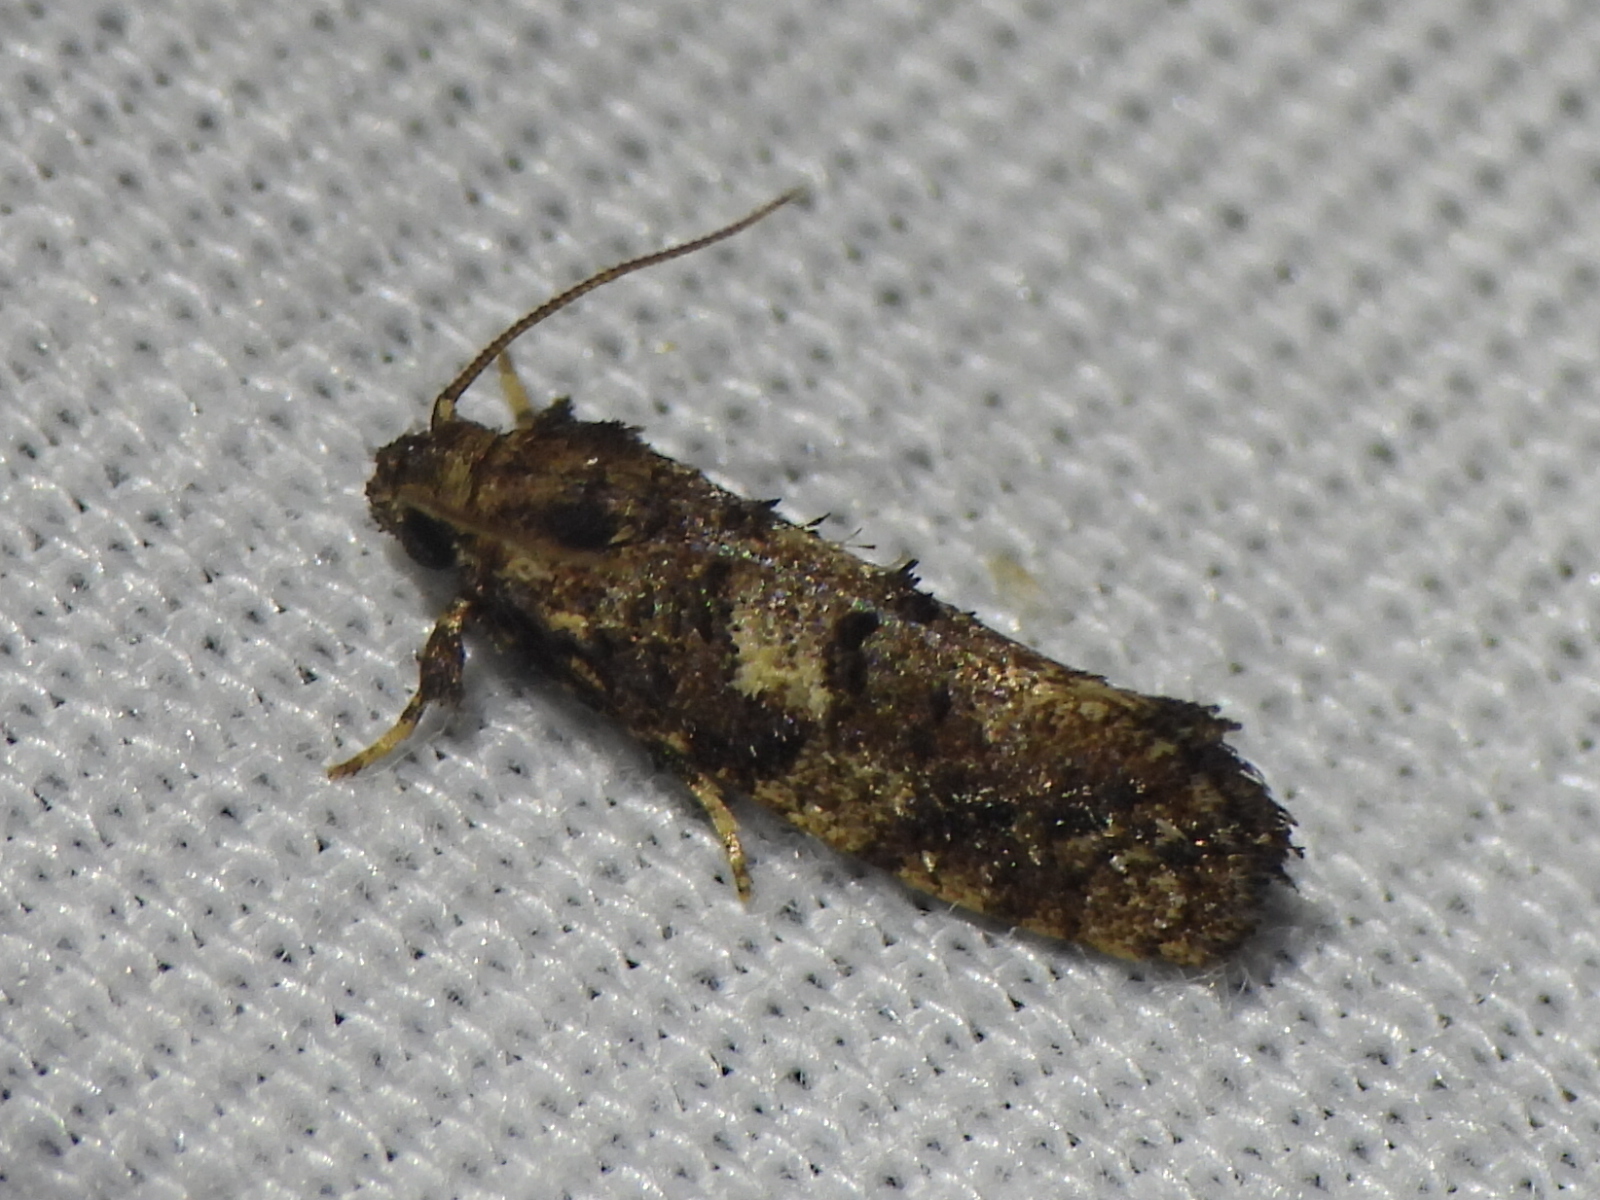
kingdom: Animalia
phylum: Arthropoda
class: Insecta
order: Lepidoptera
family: Tineidae
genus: Acrolophus
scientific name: Acrolophus cressoni
